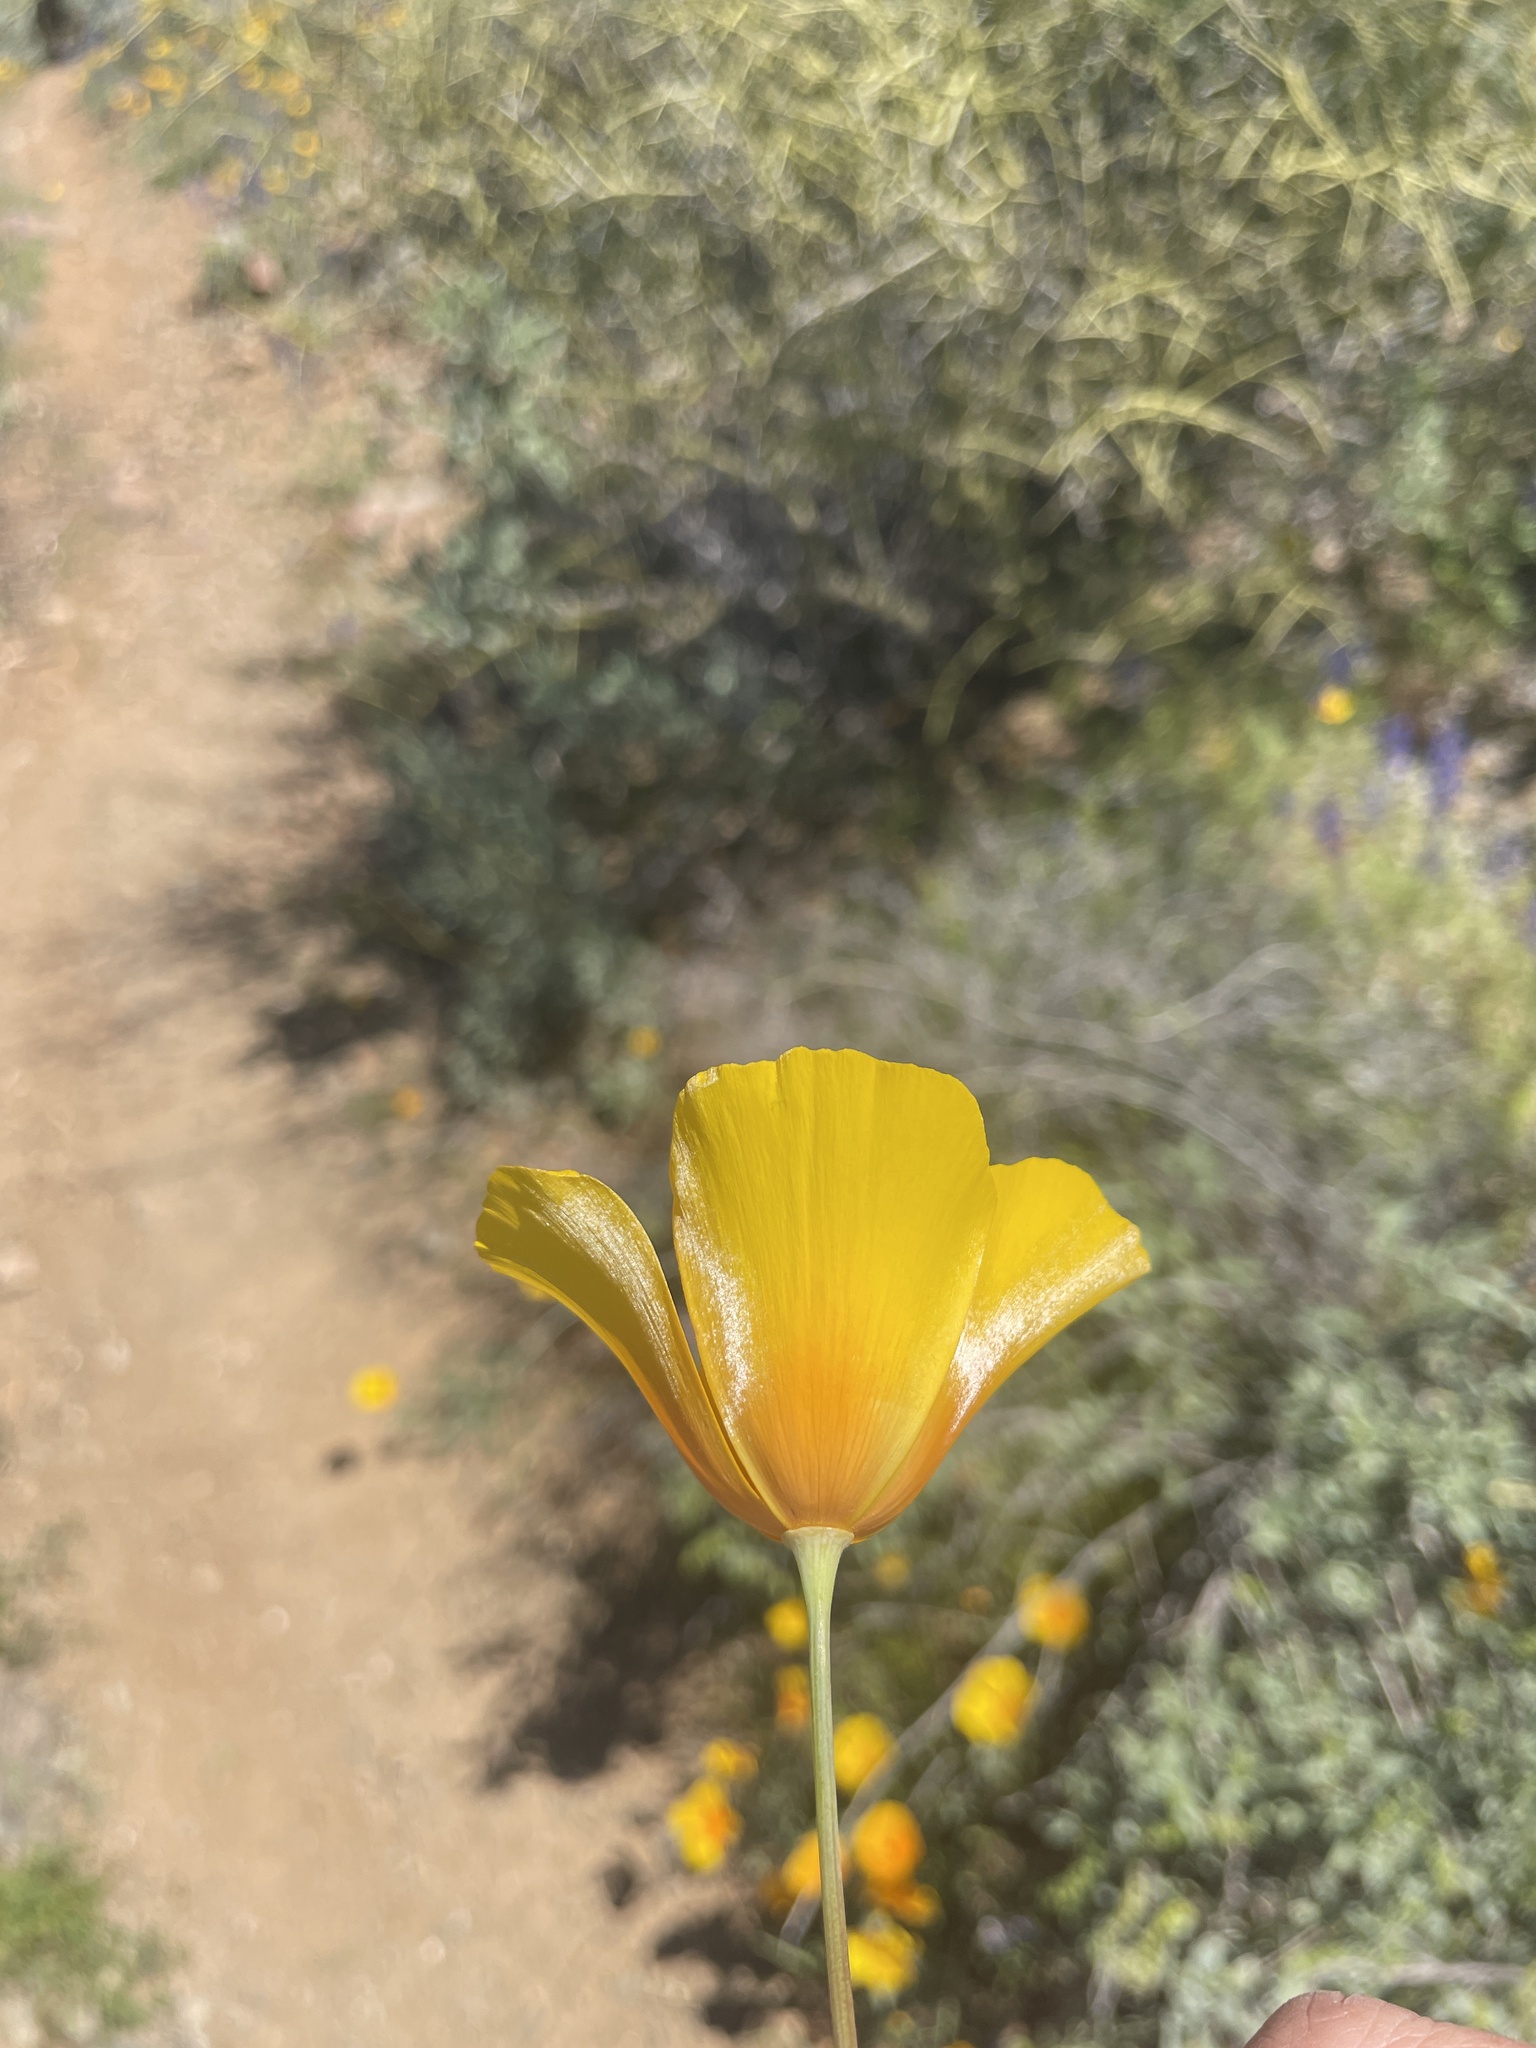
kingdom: Plantae
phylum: Tracheophyta
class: Magnoliopsida
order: Ranunculales
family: Papaveraceae
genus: Eschscholzia
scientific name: Eschscholzia californica
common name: California poppy
